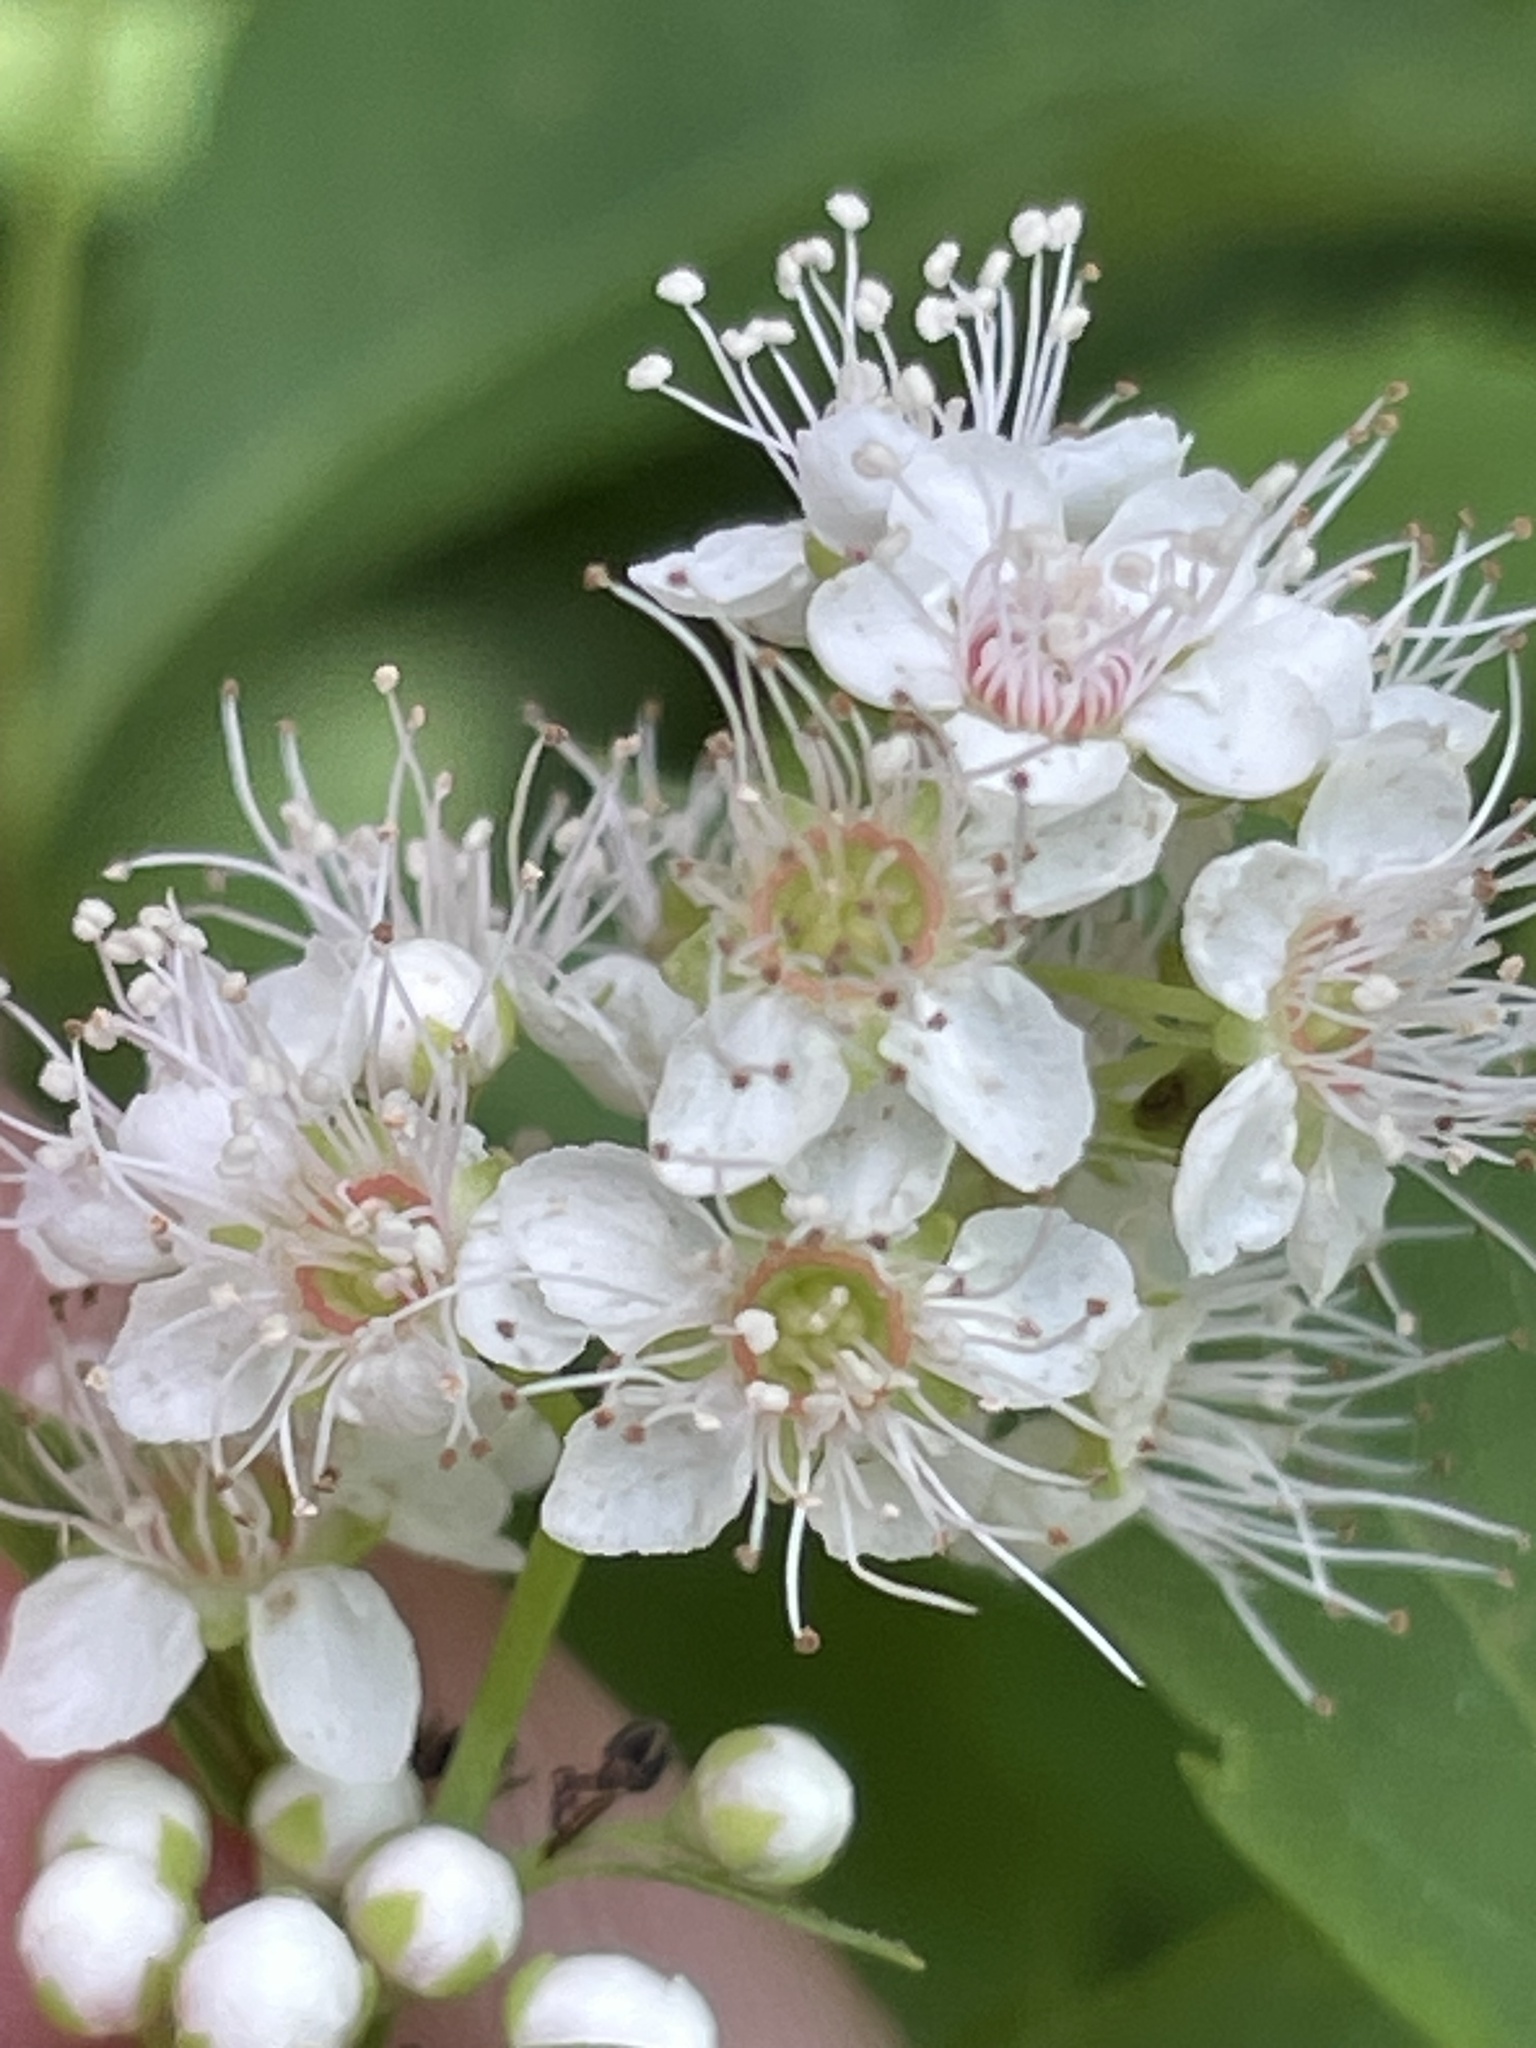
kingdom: Plantae
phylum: Tracheophyta
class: Magnoliopsida
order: Rosales
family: Rosaceae
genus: Spiraea
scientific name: Spiraea alba
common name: Pale bridewort
